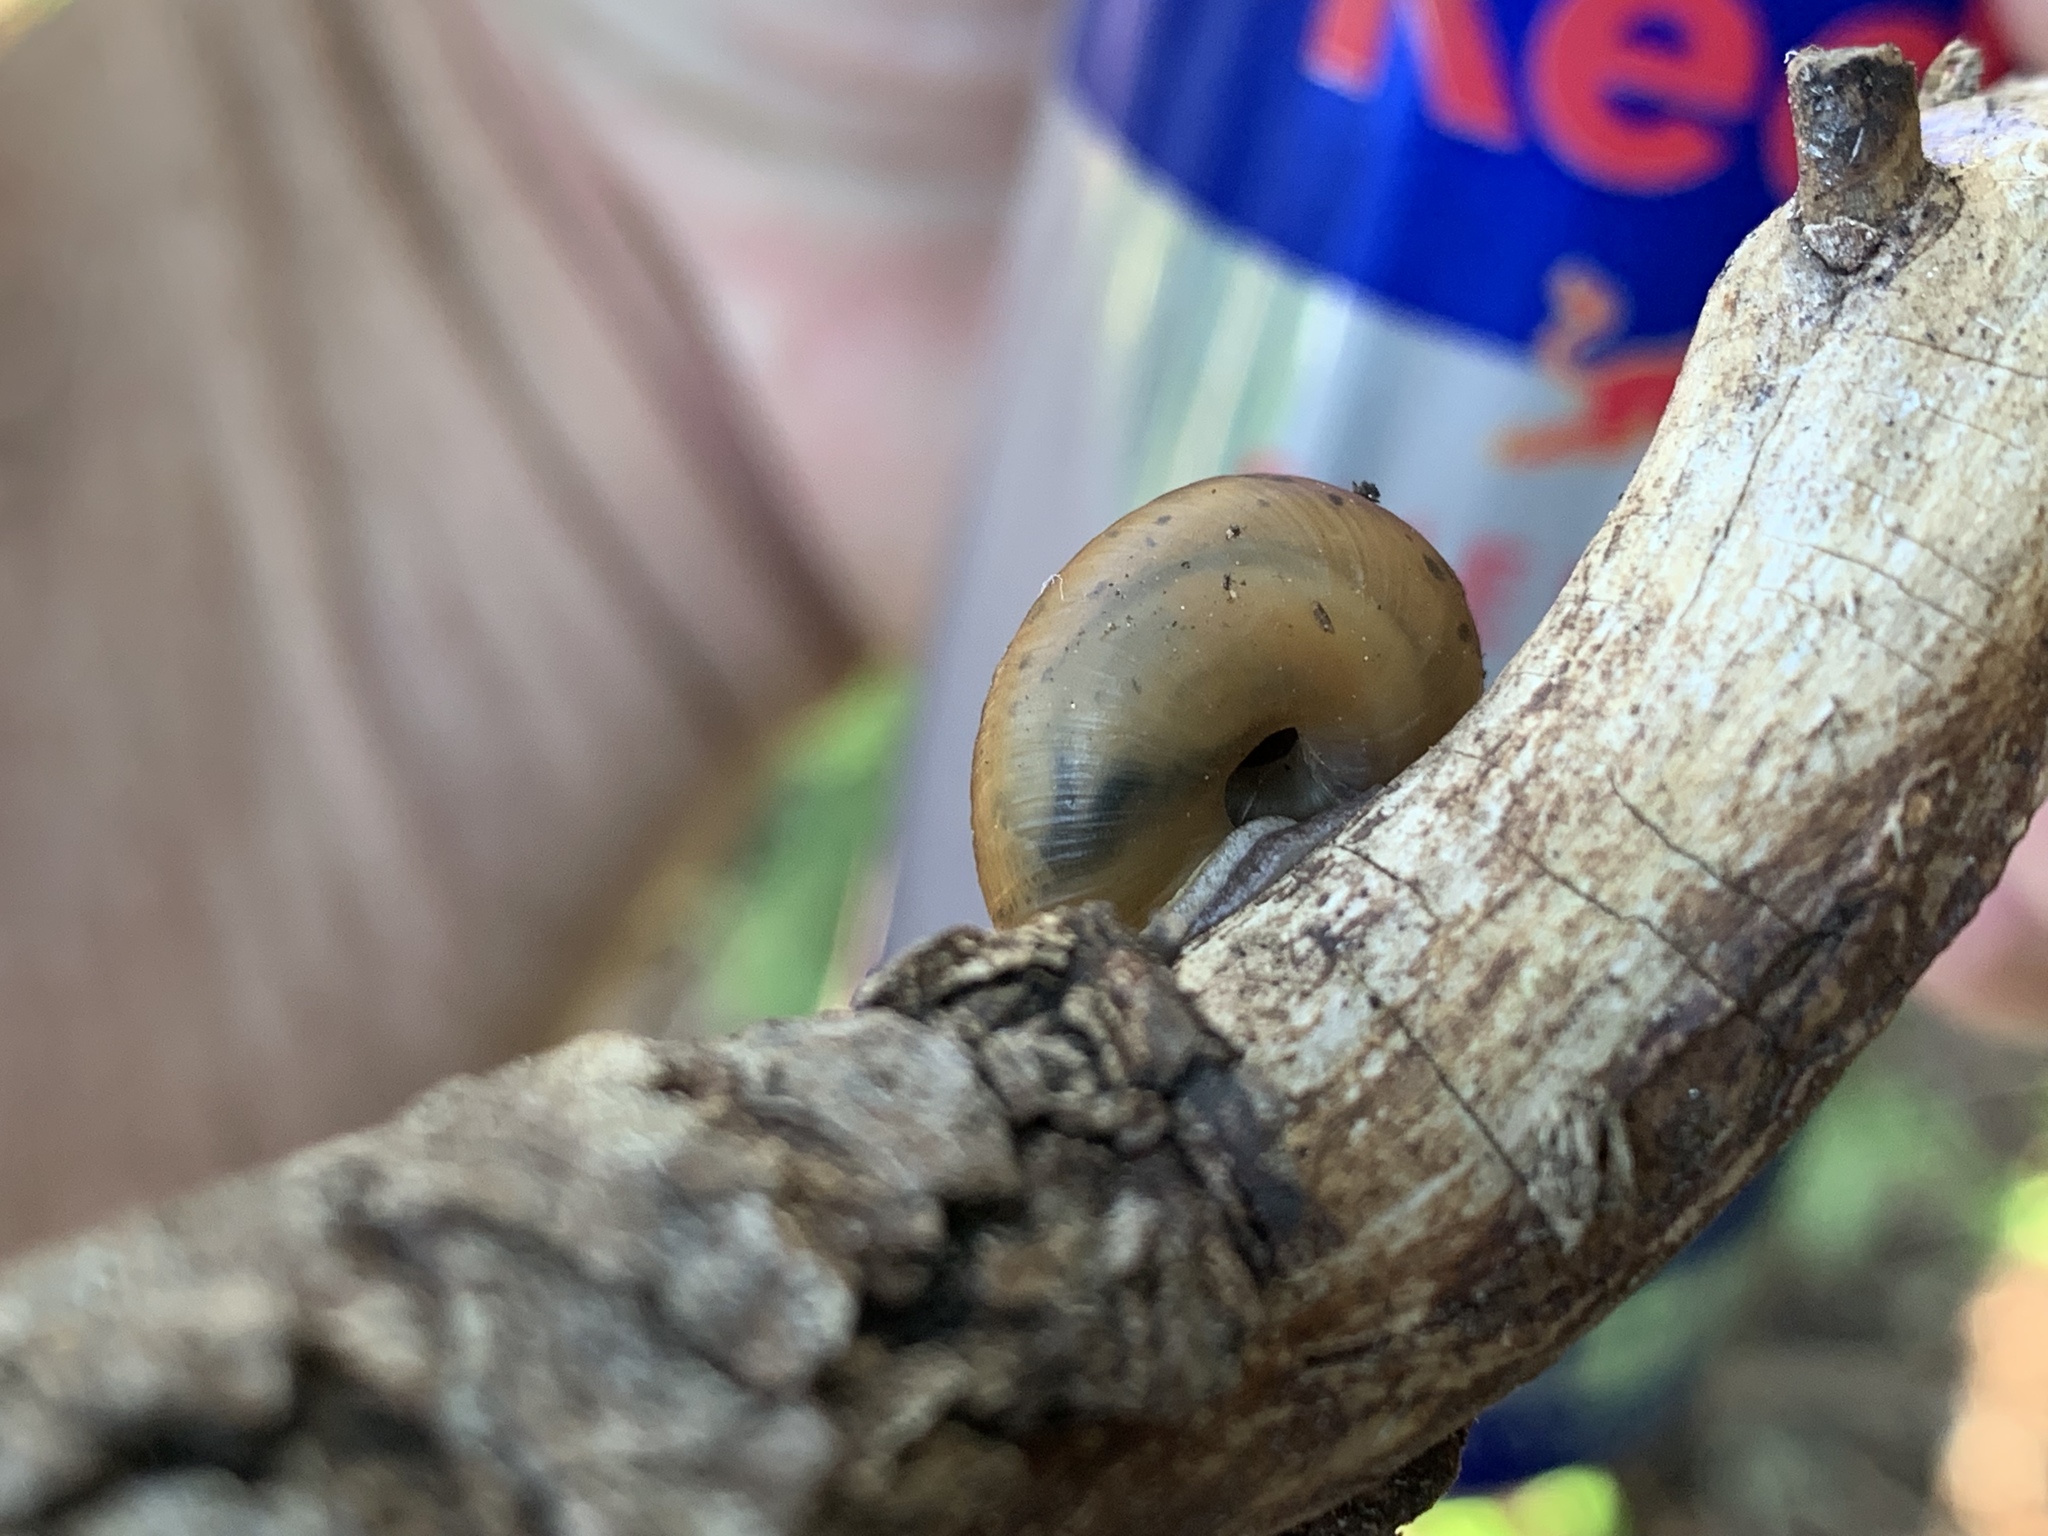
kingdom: Animalia
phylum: Mollusca
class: Gastropoda
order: Stylommatophora
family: Polygyridae
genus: Ashmunella
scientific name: Ashmunella rhyssa
